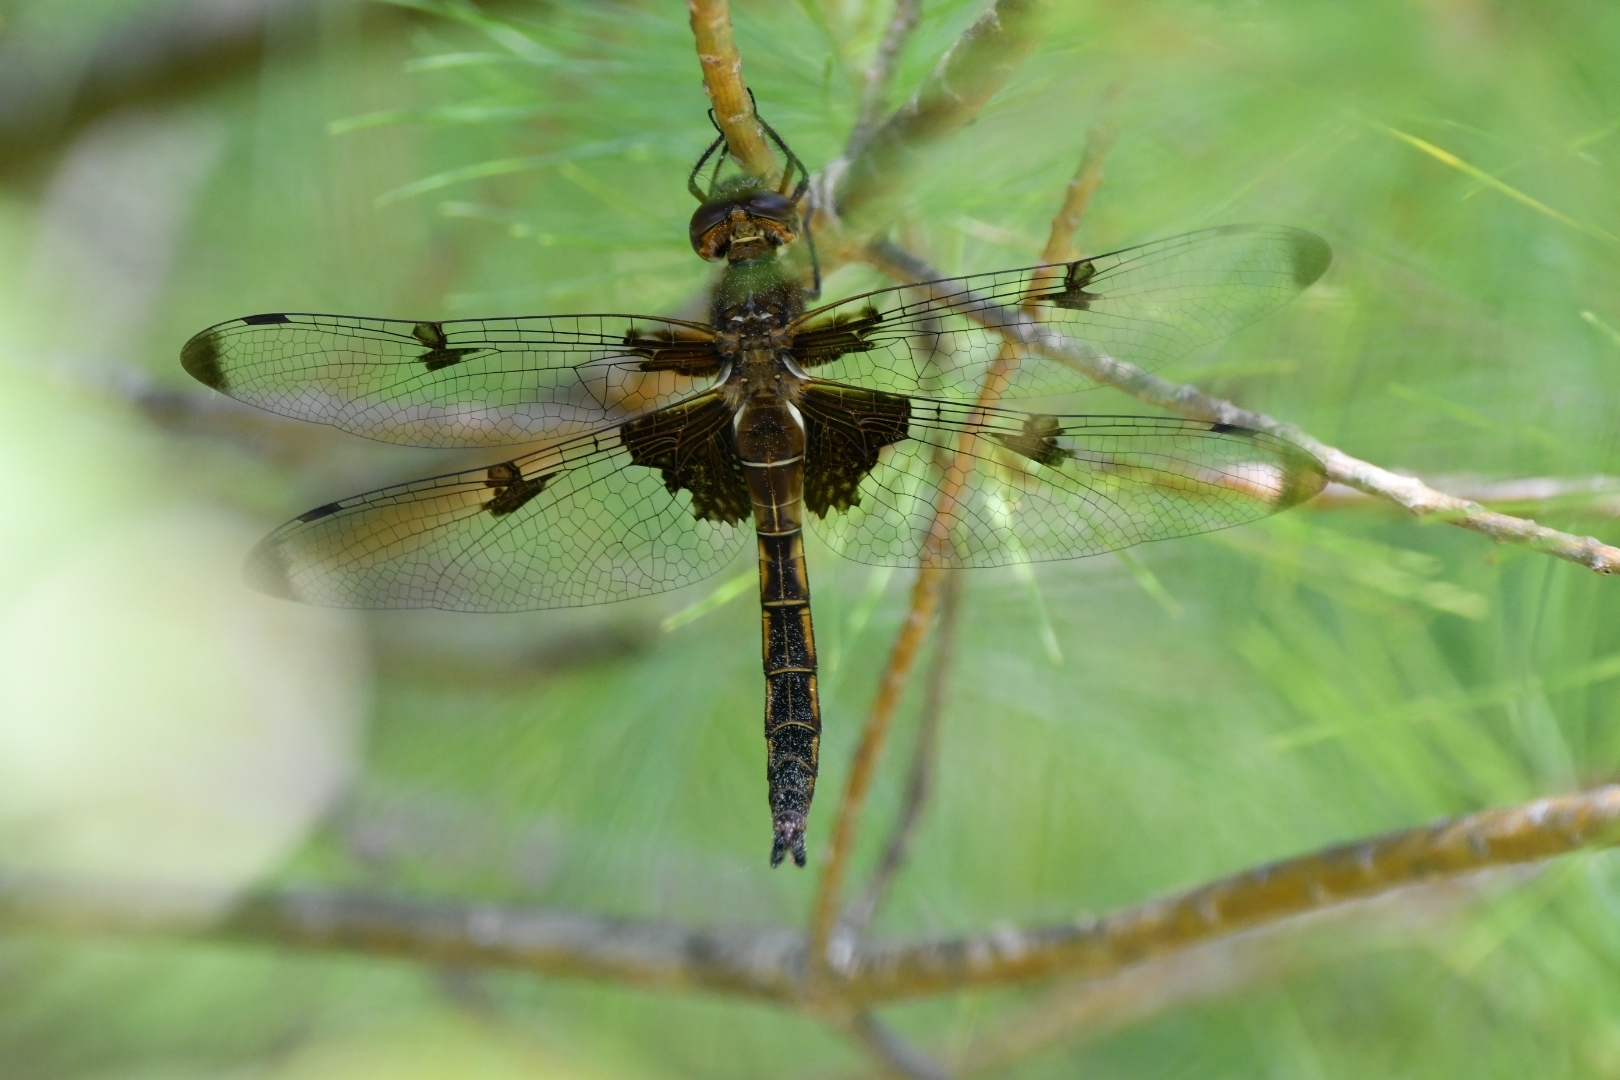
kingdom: Animalia
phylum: Arthropoda
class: Insecta
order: Odonata
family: Corduliidae
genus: Epitheca
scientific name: Epitheca princeps
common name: Prince baskettail
